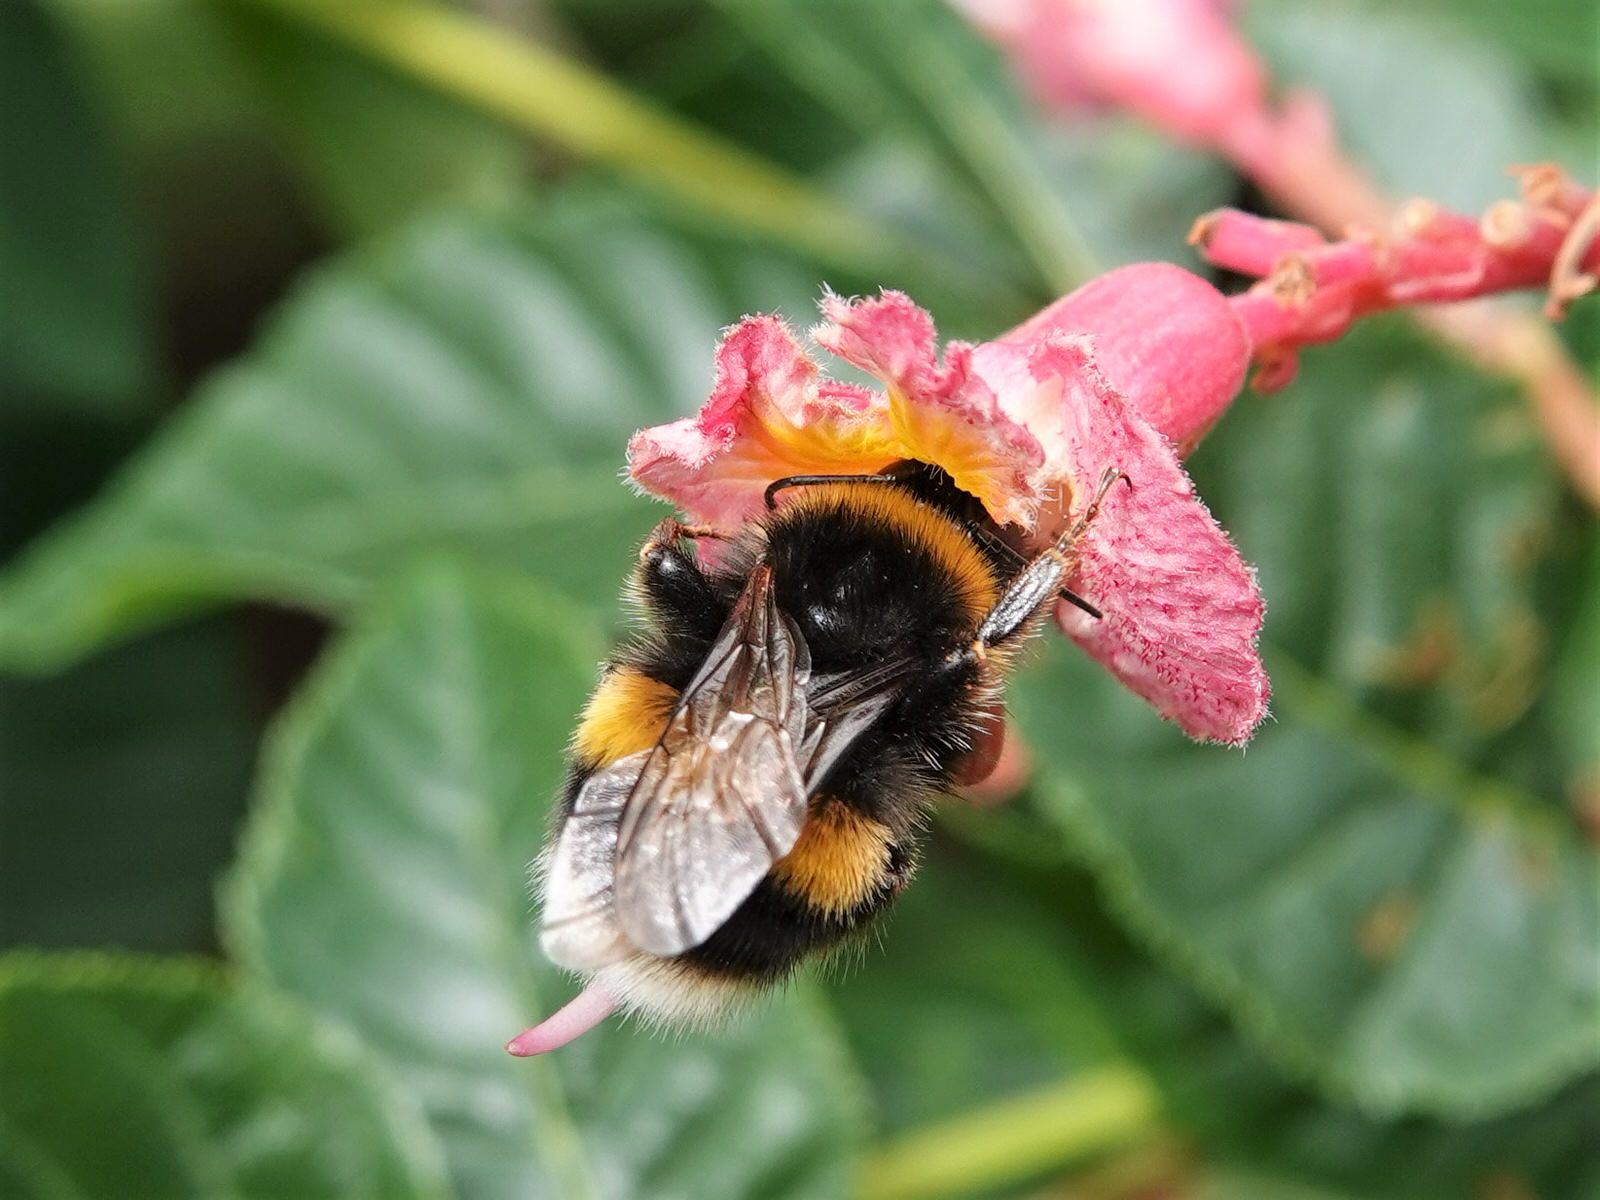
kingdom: Animalia
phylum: Arthropoda
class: Insecta
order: Hymenoptera
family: Apidae
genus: Bombus
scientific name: Bombus terrestris
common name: Buff-tailed bumblebee
